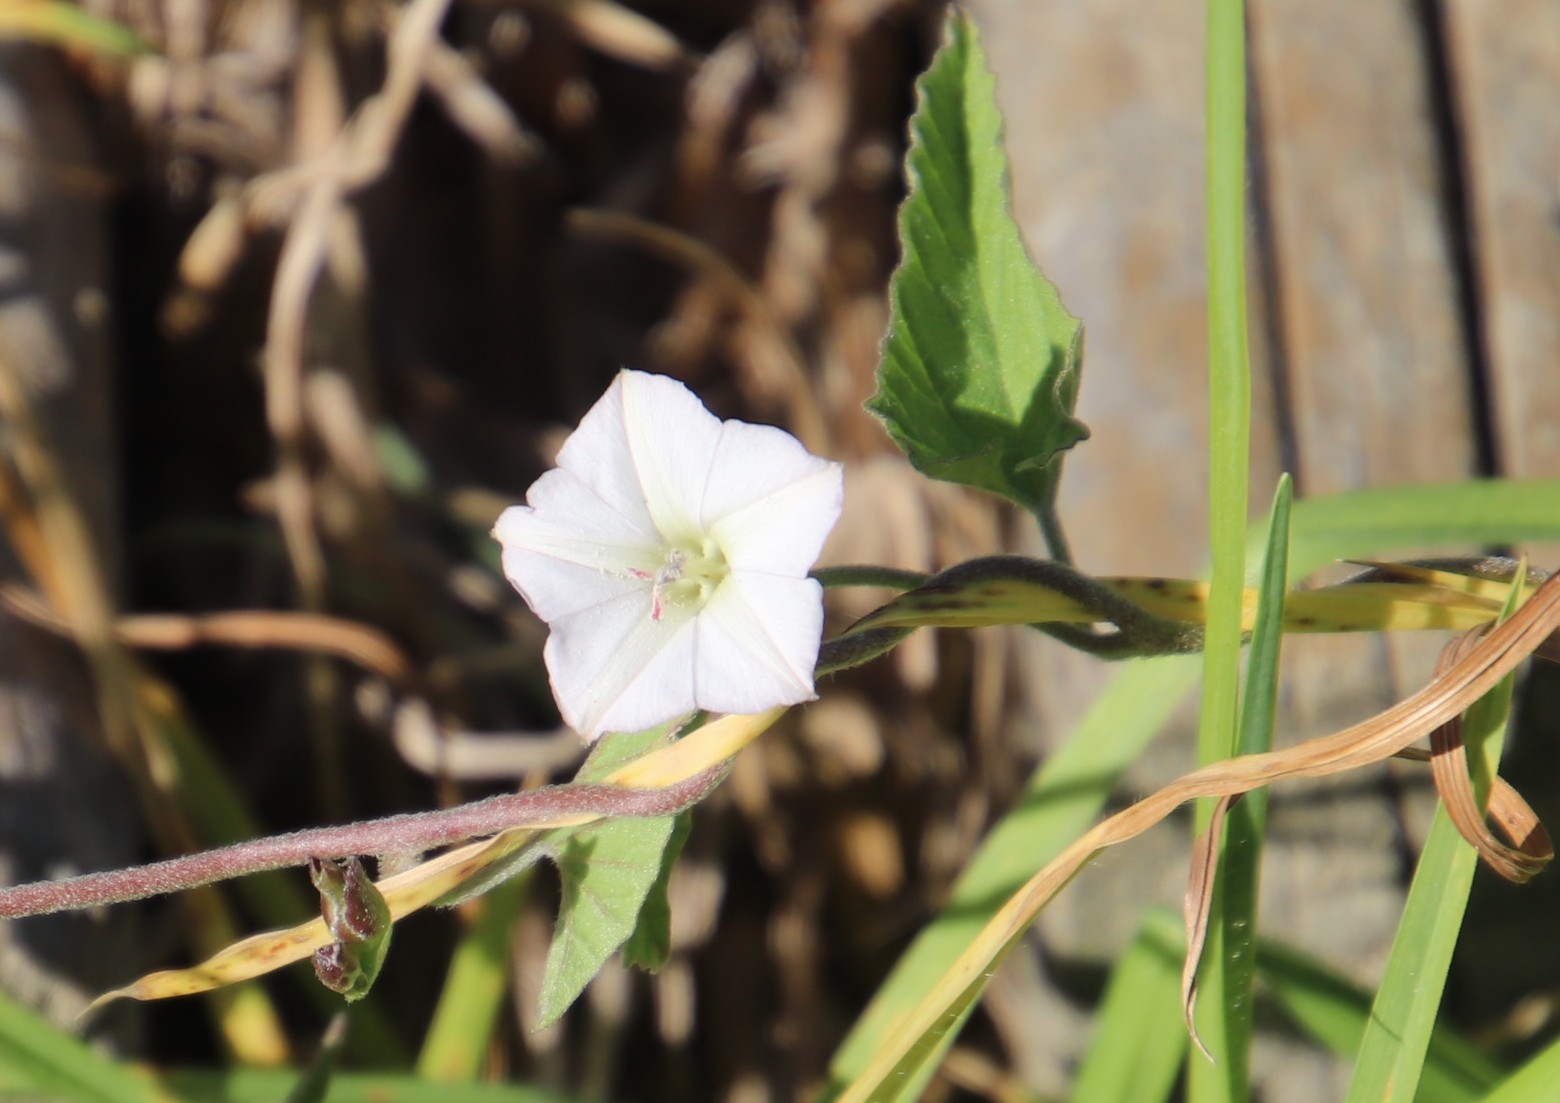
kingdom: Plantae
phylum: Tracheophyta
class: Magnoliopsida
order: Solanales
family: Convolvulaceae
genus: Convolvulus
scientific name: Convolvulus farinosus
